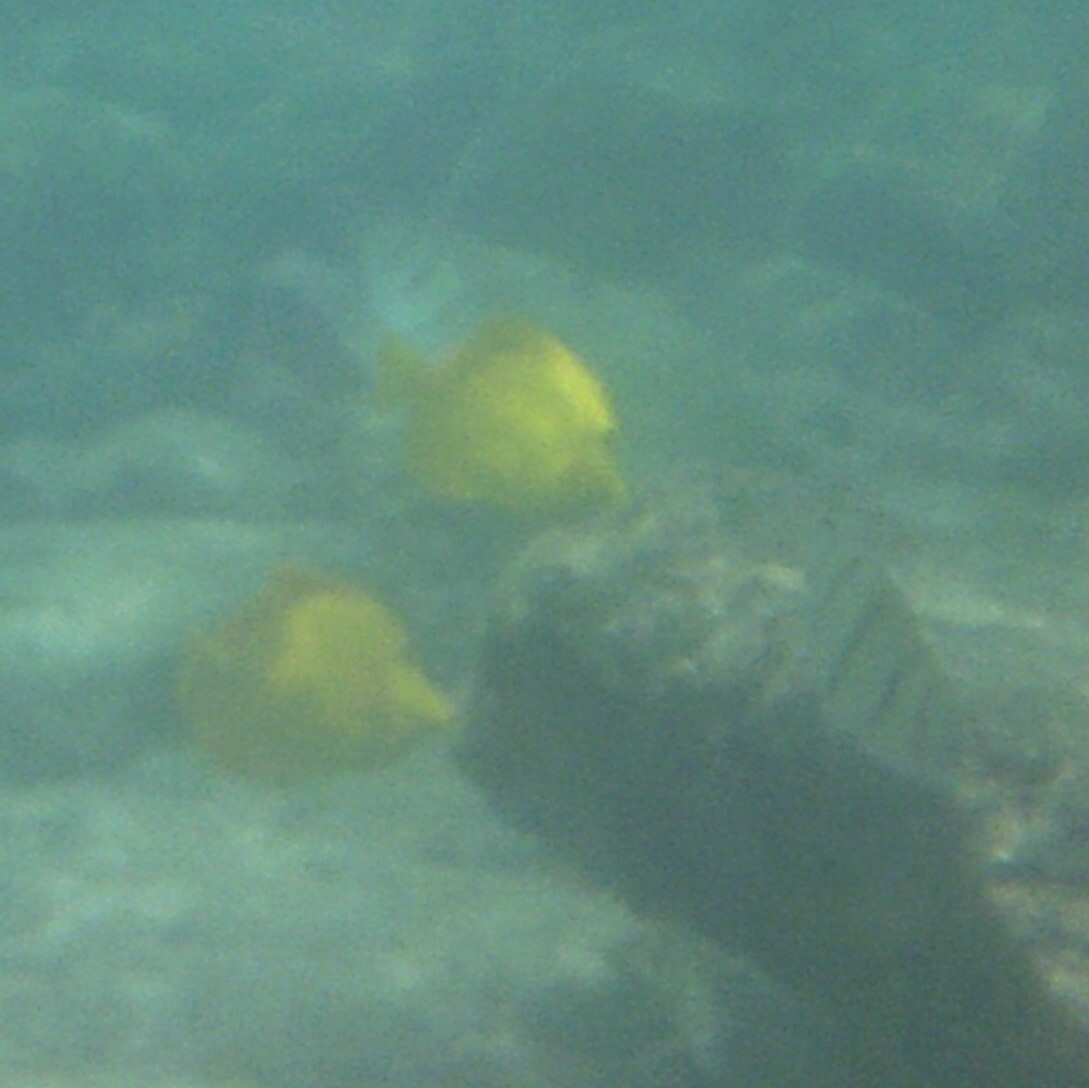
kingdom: Animalia
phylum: Chordata
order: Perciformes
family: Acanthuridae
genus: Zebrasoma
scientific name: Zebrasoma flavescens
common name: Yellow tang
